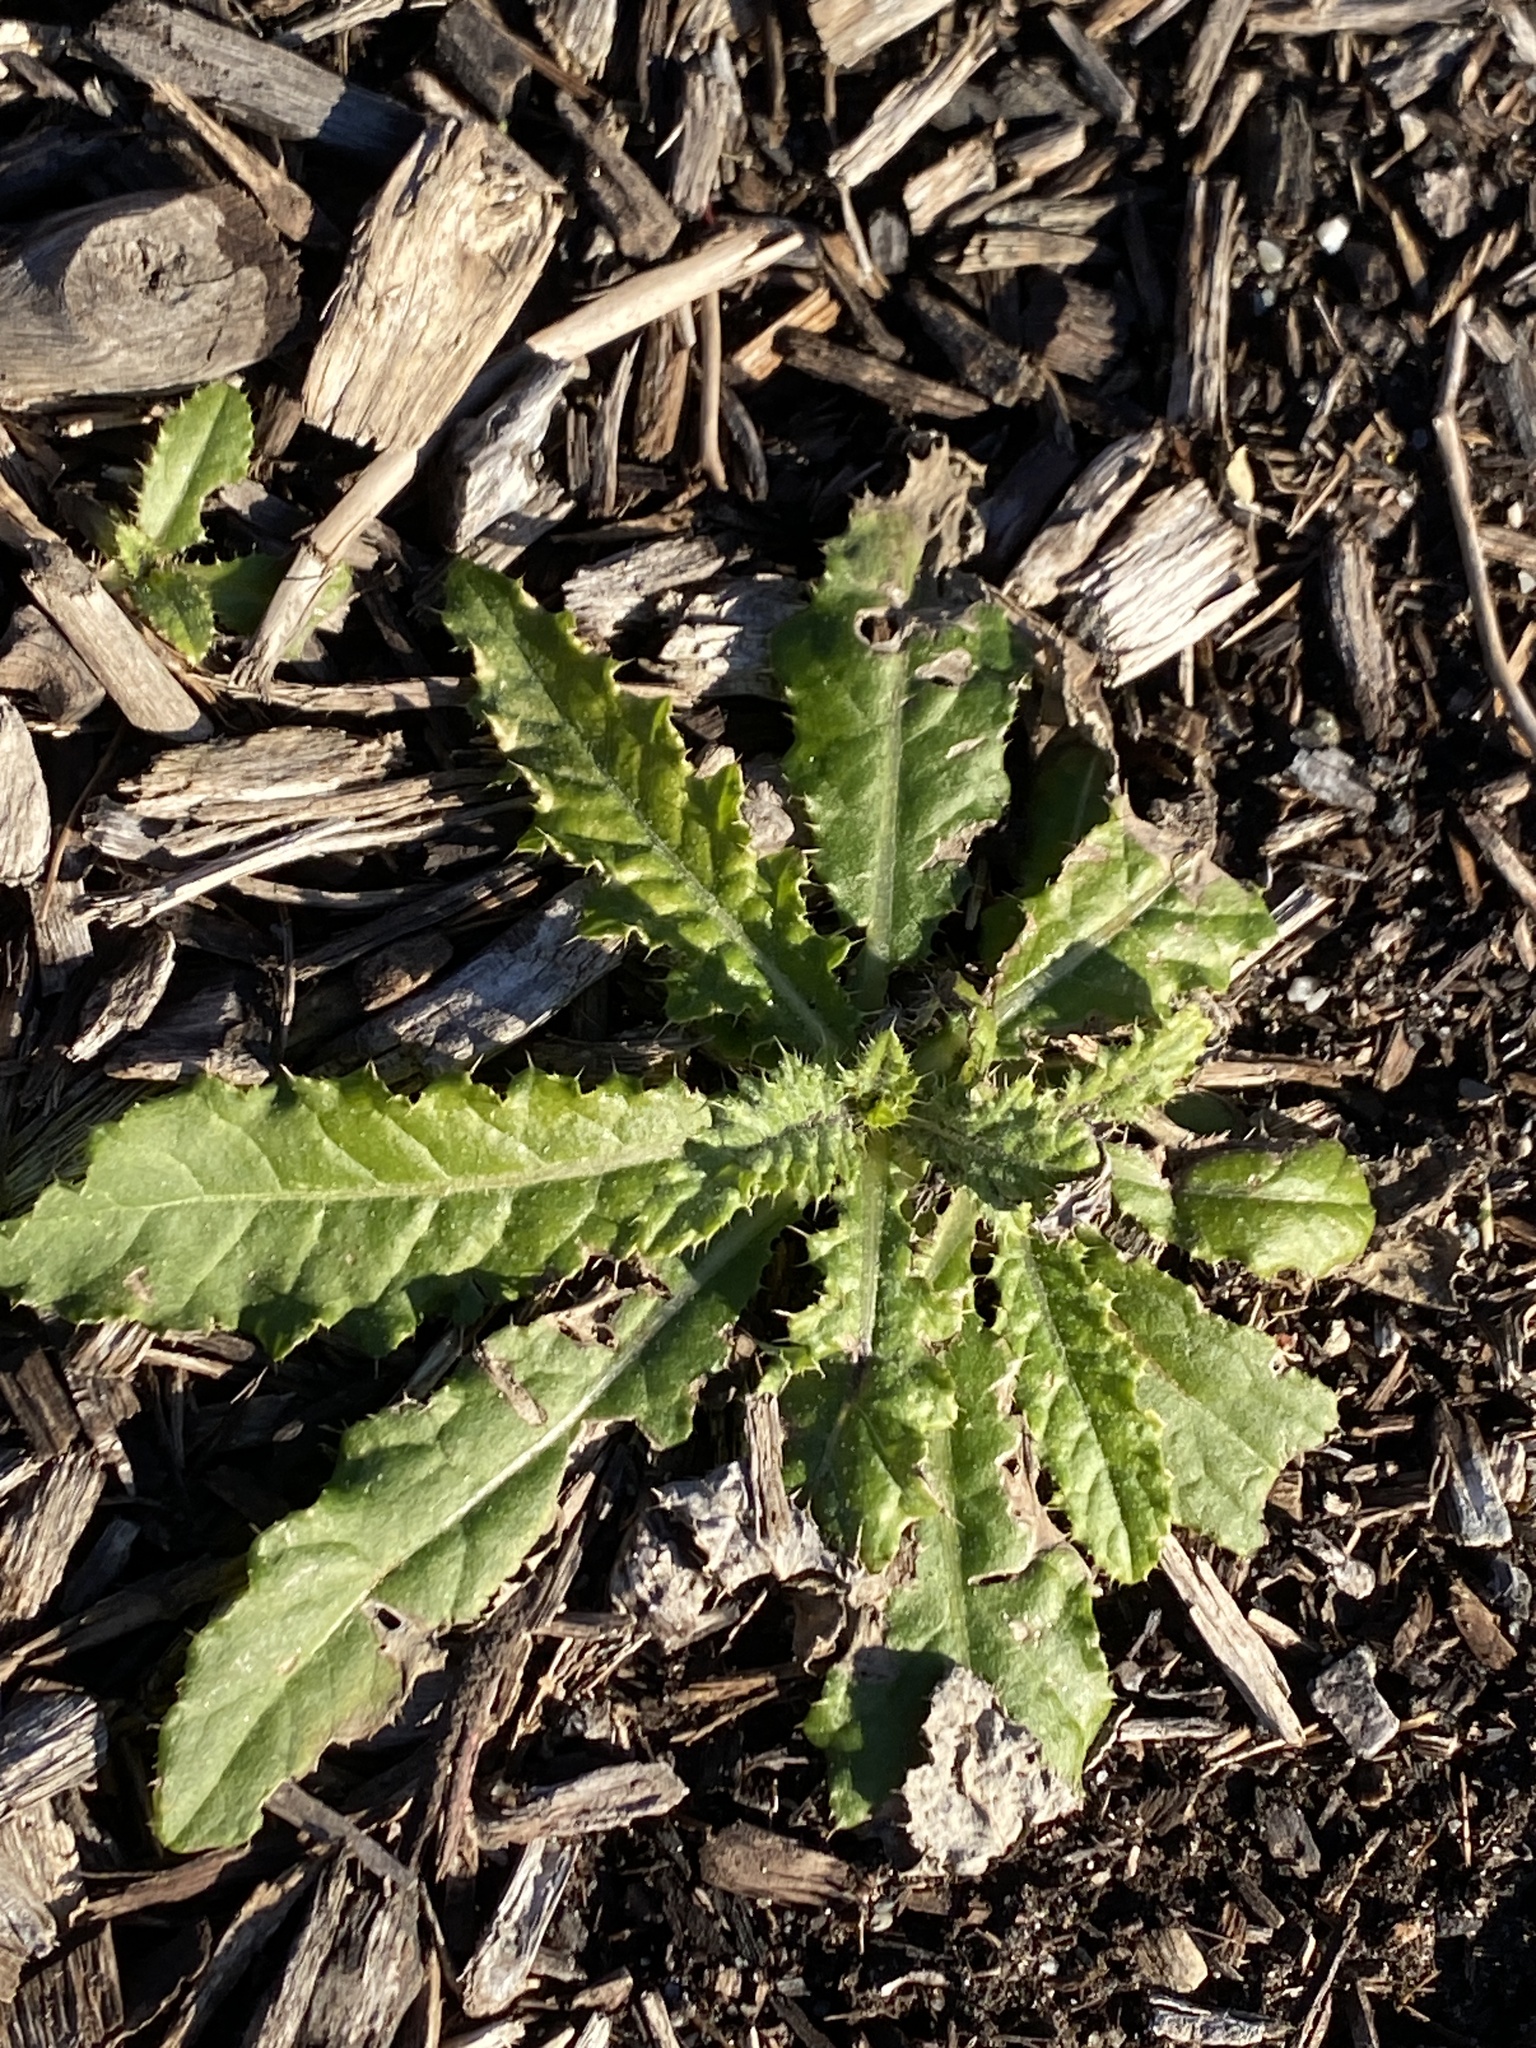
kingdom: Plantae
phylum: Tracheophyta
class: Magnoliopsida
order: Asterales
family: Asteraceae
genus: Cirsium
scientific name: Cirsium arvense
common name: Creeping thistle
